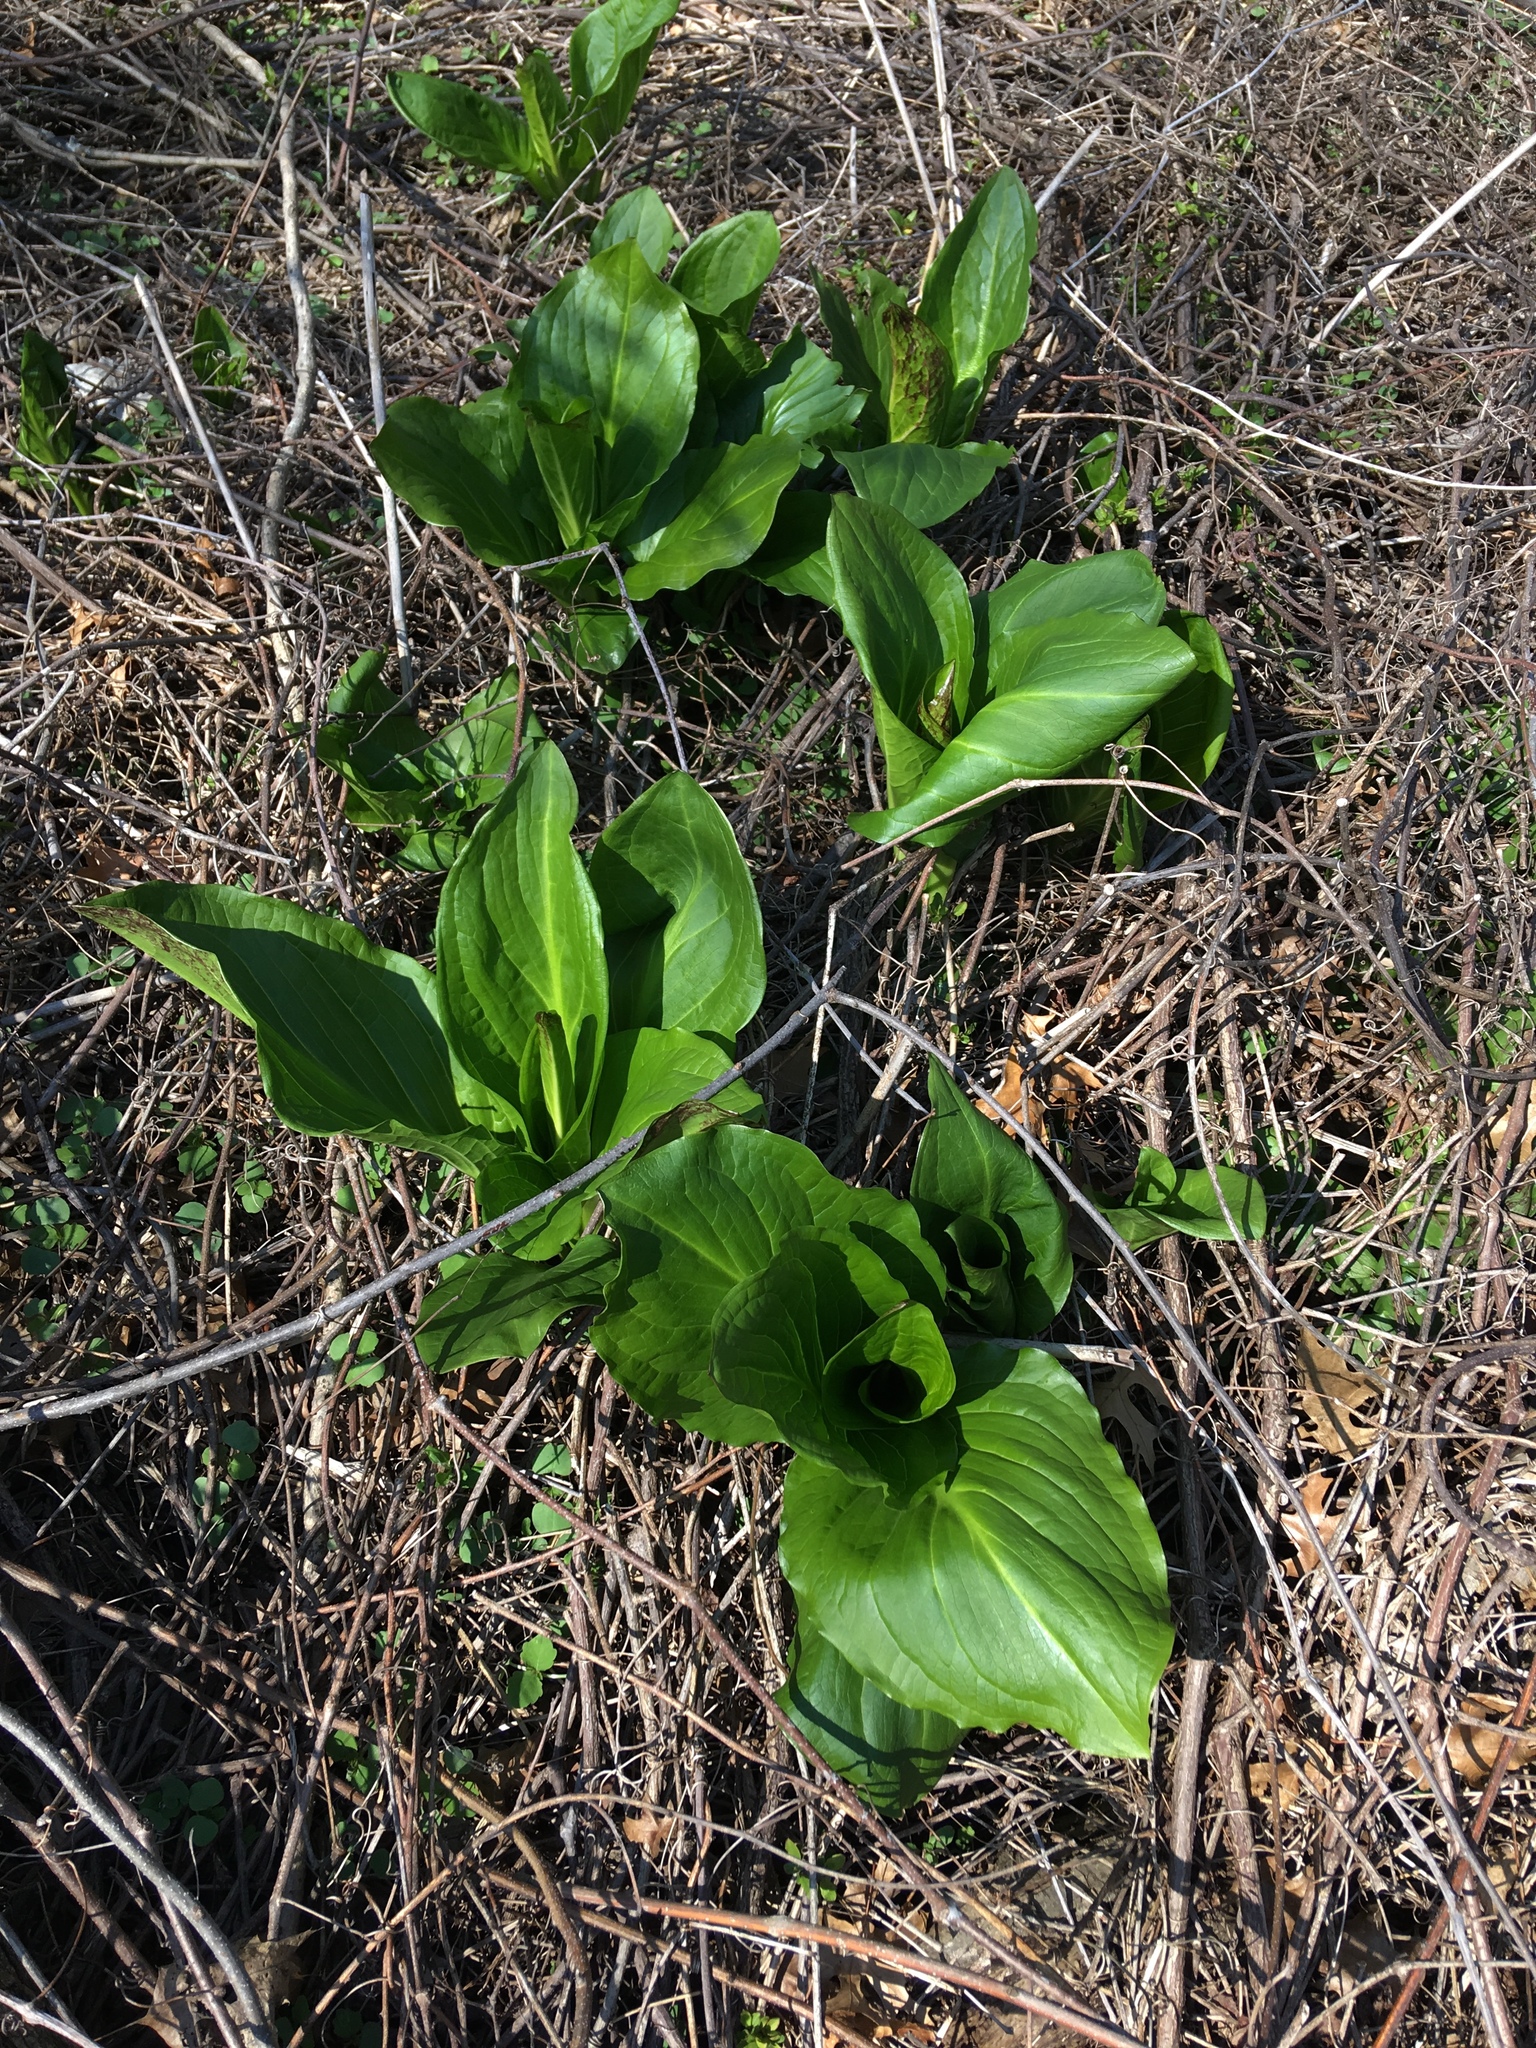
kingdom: Plantae
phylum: Tracheophyta
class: Liliopsida
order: Alismatales
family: Araceae
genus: Symplocarpus
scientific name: Symplocarpus foetidus
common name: Eastern skunk cabbage
